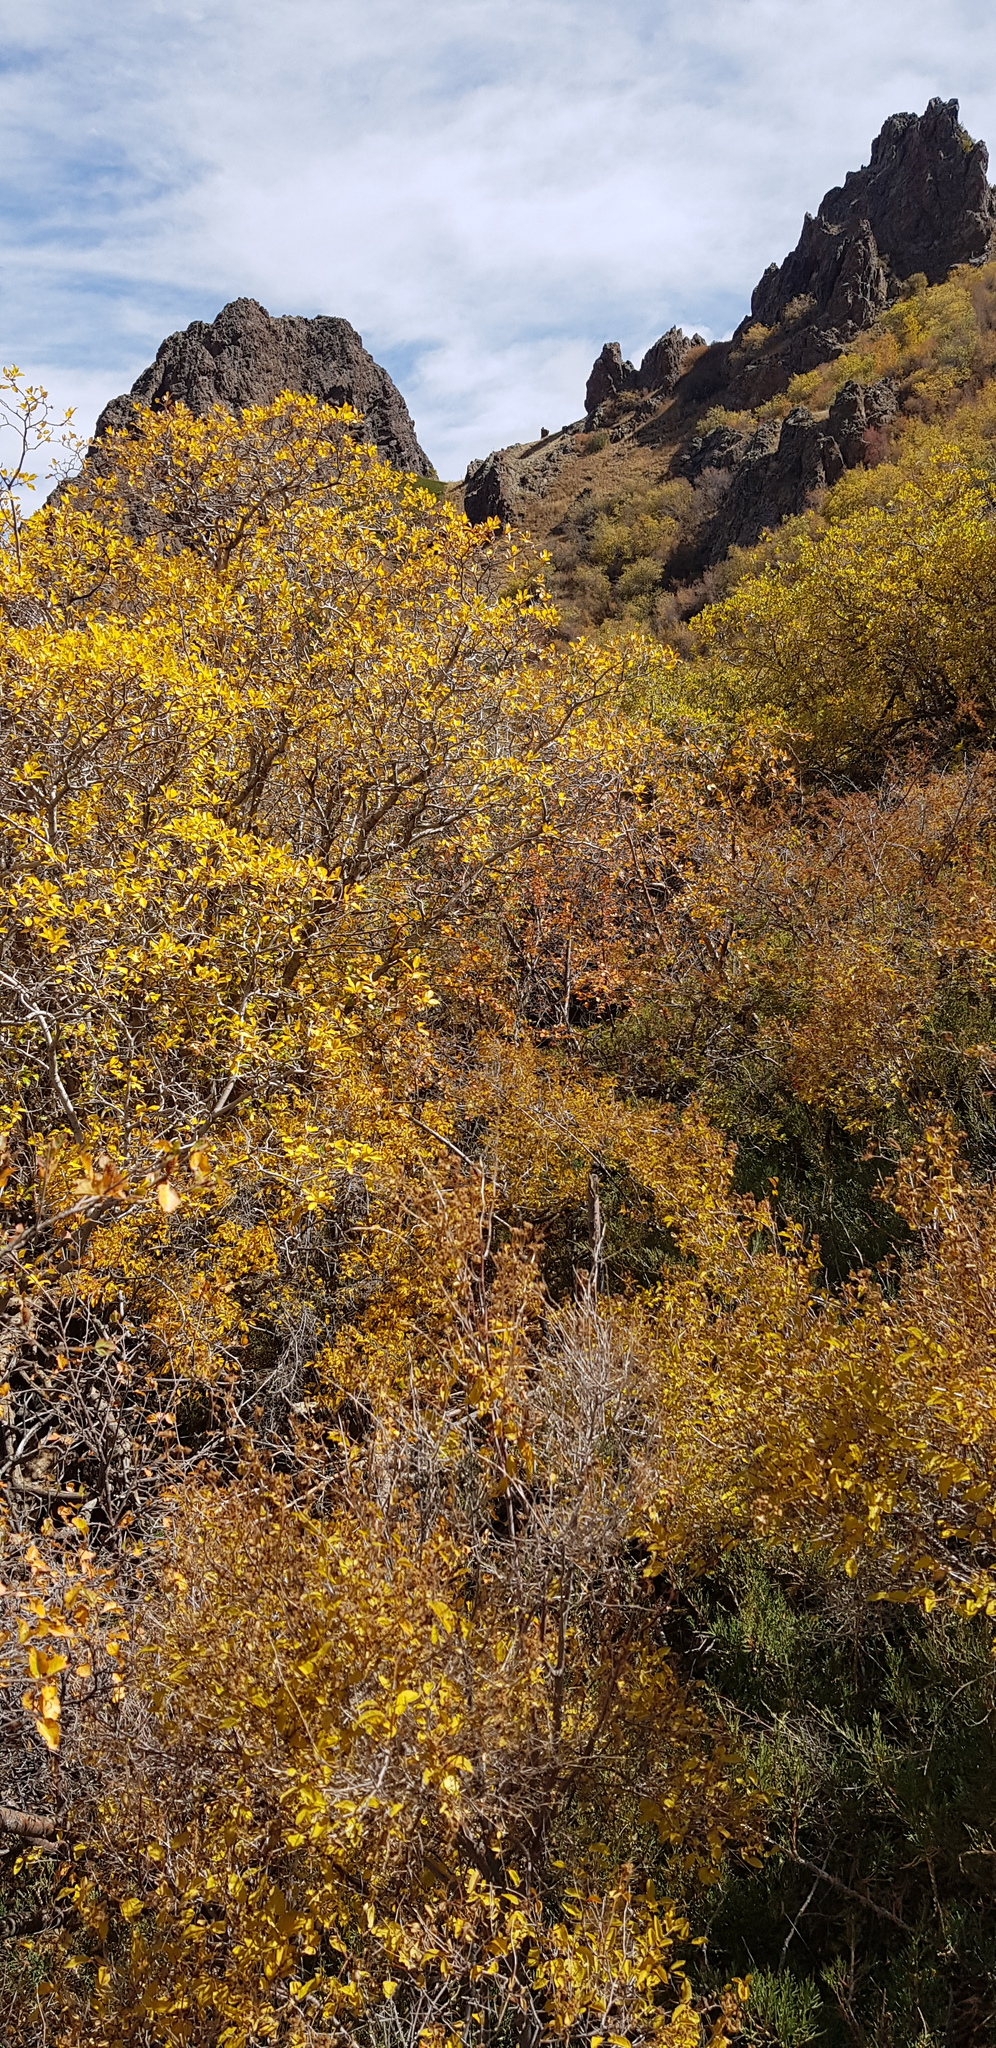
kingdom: Plantae
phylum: Tracheophyta
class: Magnoliopsida
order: Dipsacales
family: Caprifoliaceae
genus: Lonicera
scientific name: Lonicera hispida
